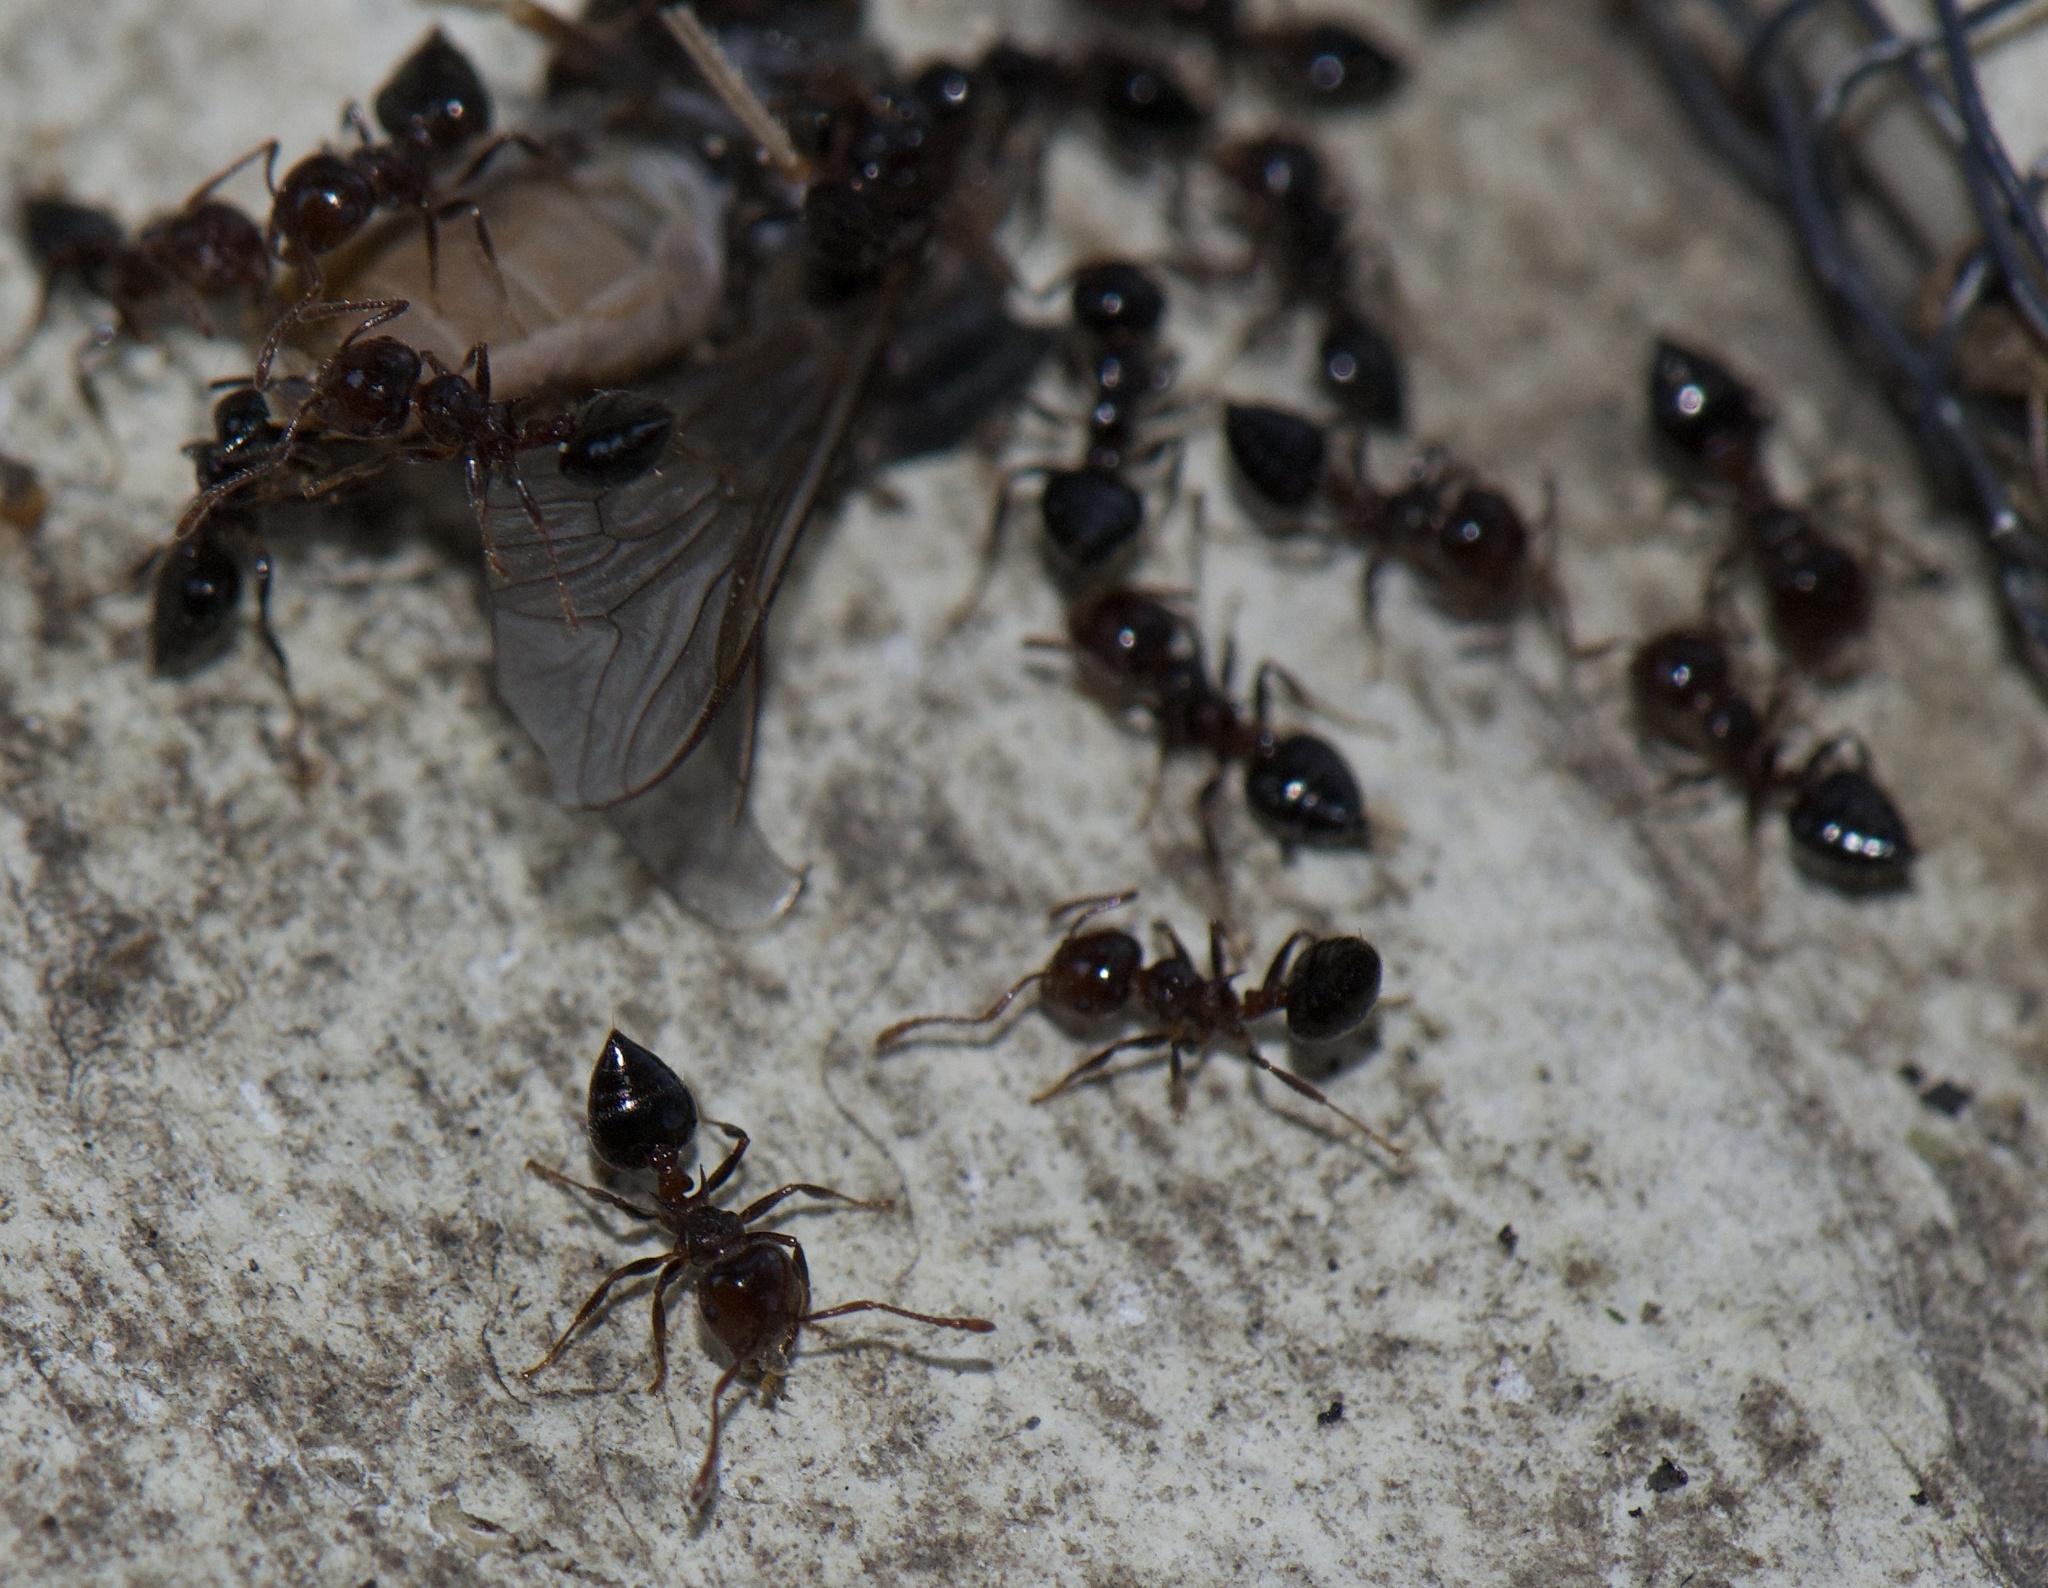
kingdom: Animalia
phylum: Arthropoda
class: Insecta
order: Hymenoptera
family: Formicidae
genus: Crematogaster
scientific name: Crematogaster pilosa
